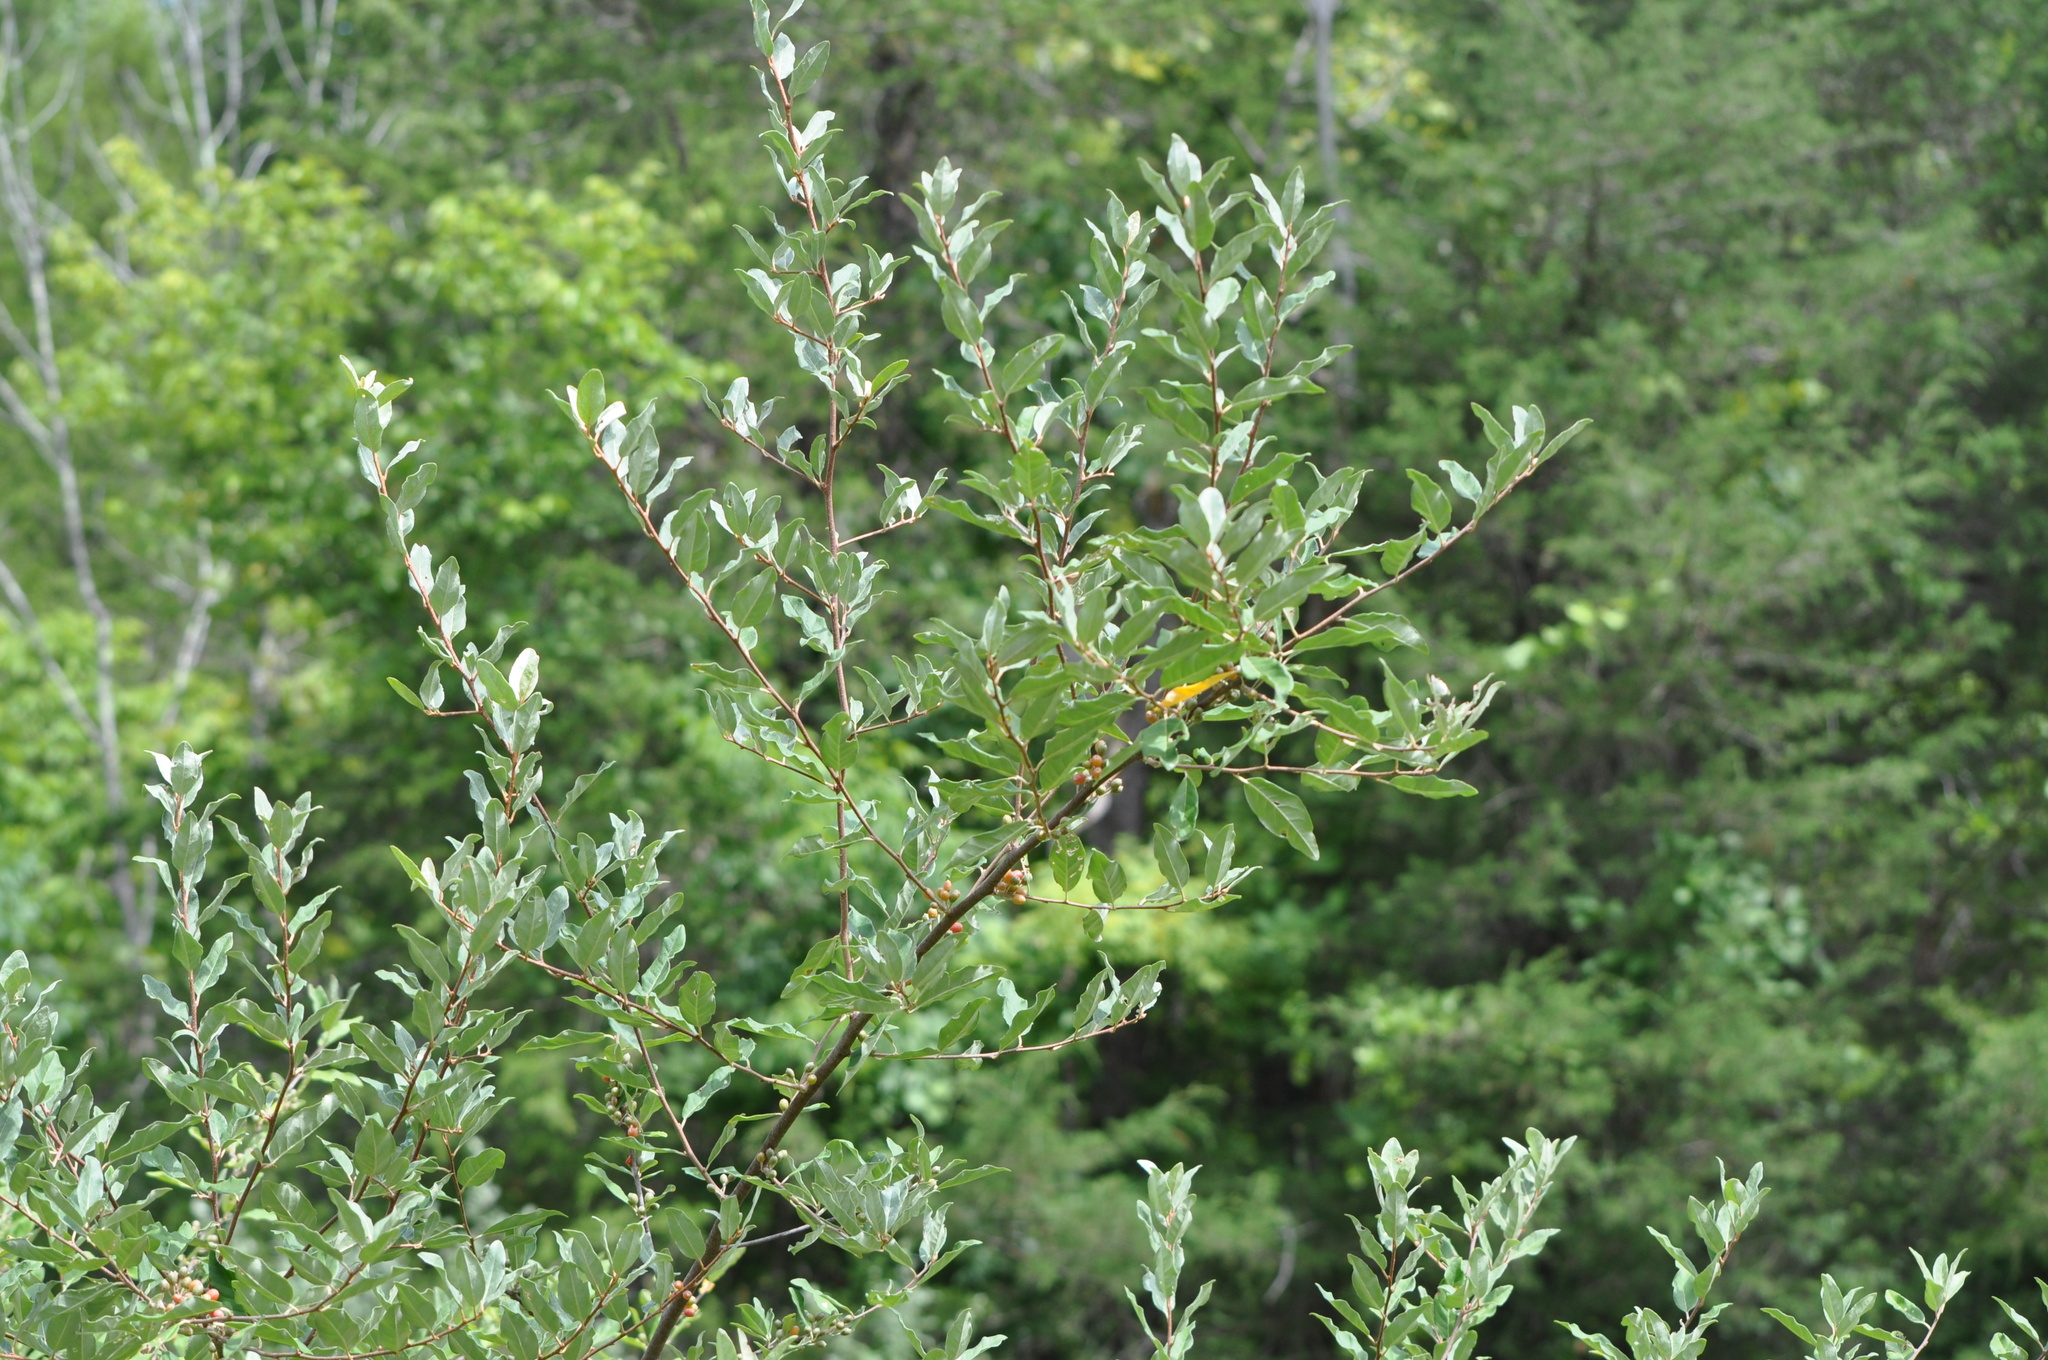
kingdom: Plantae
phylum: Tracheophyta
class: Magnoliopsida
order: Rosales
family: Elaeagnaceae
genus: Elaeagnus
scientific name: Elaeagnus umbellata
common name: Autumn olive
